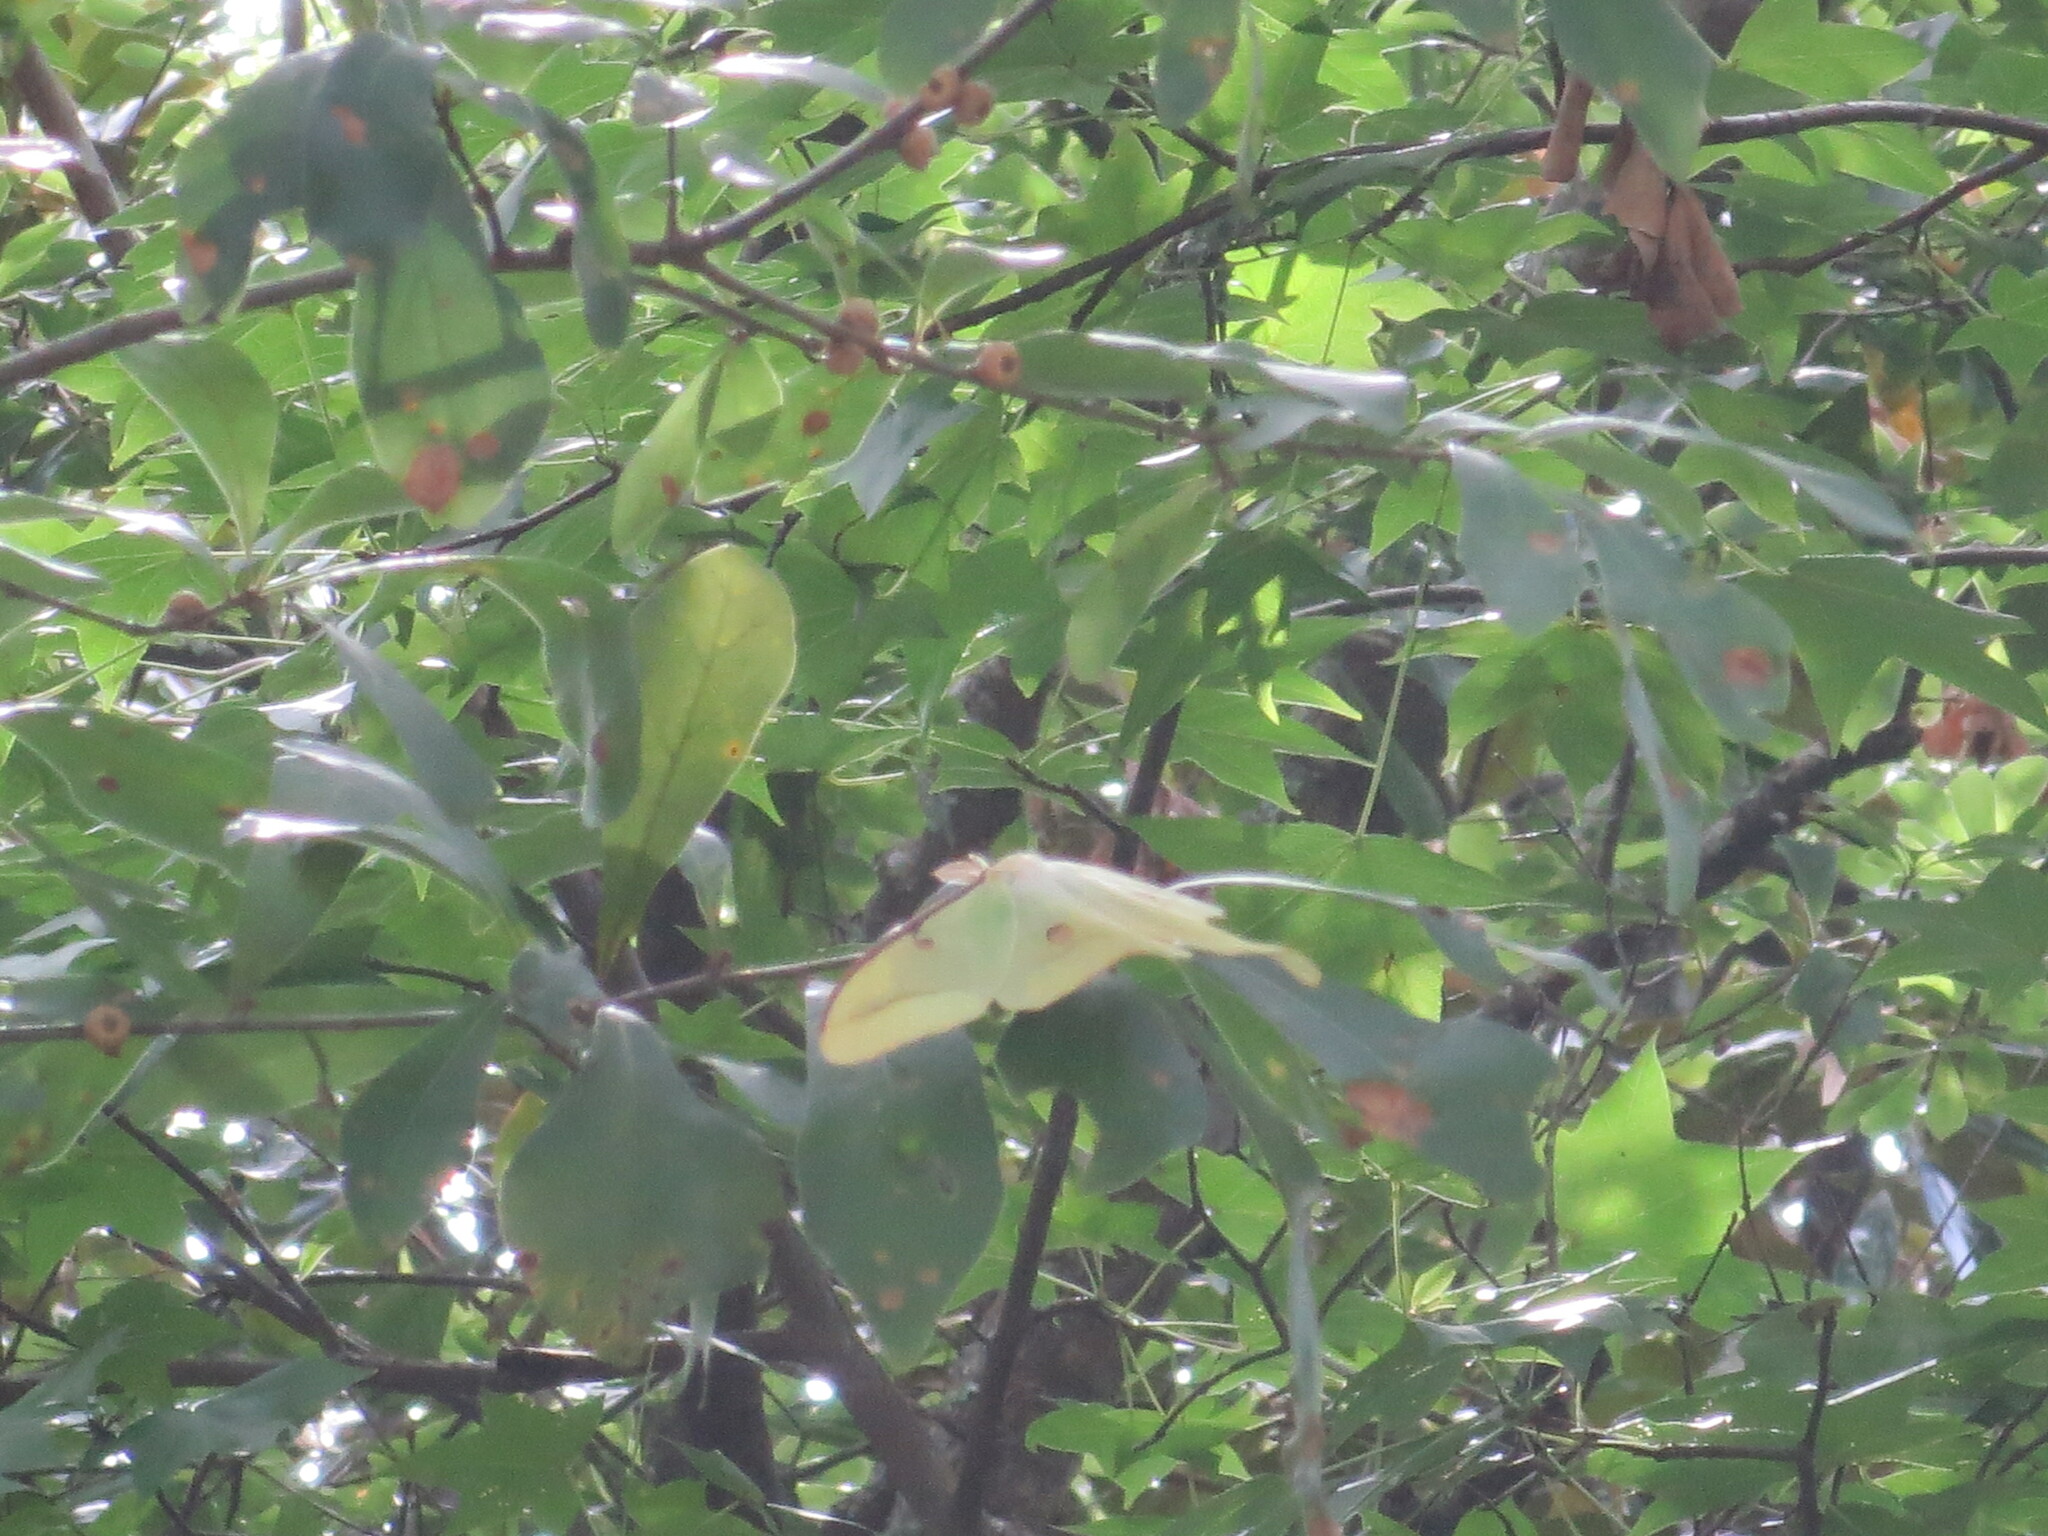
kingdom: Animalia
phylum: Arthropoda
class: Insecta
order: Lepidoptera
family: Saturniidae
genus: Actias
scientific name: Actias luna
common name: Luna moth
